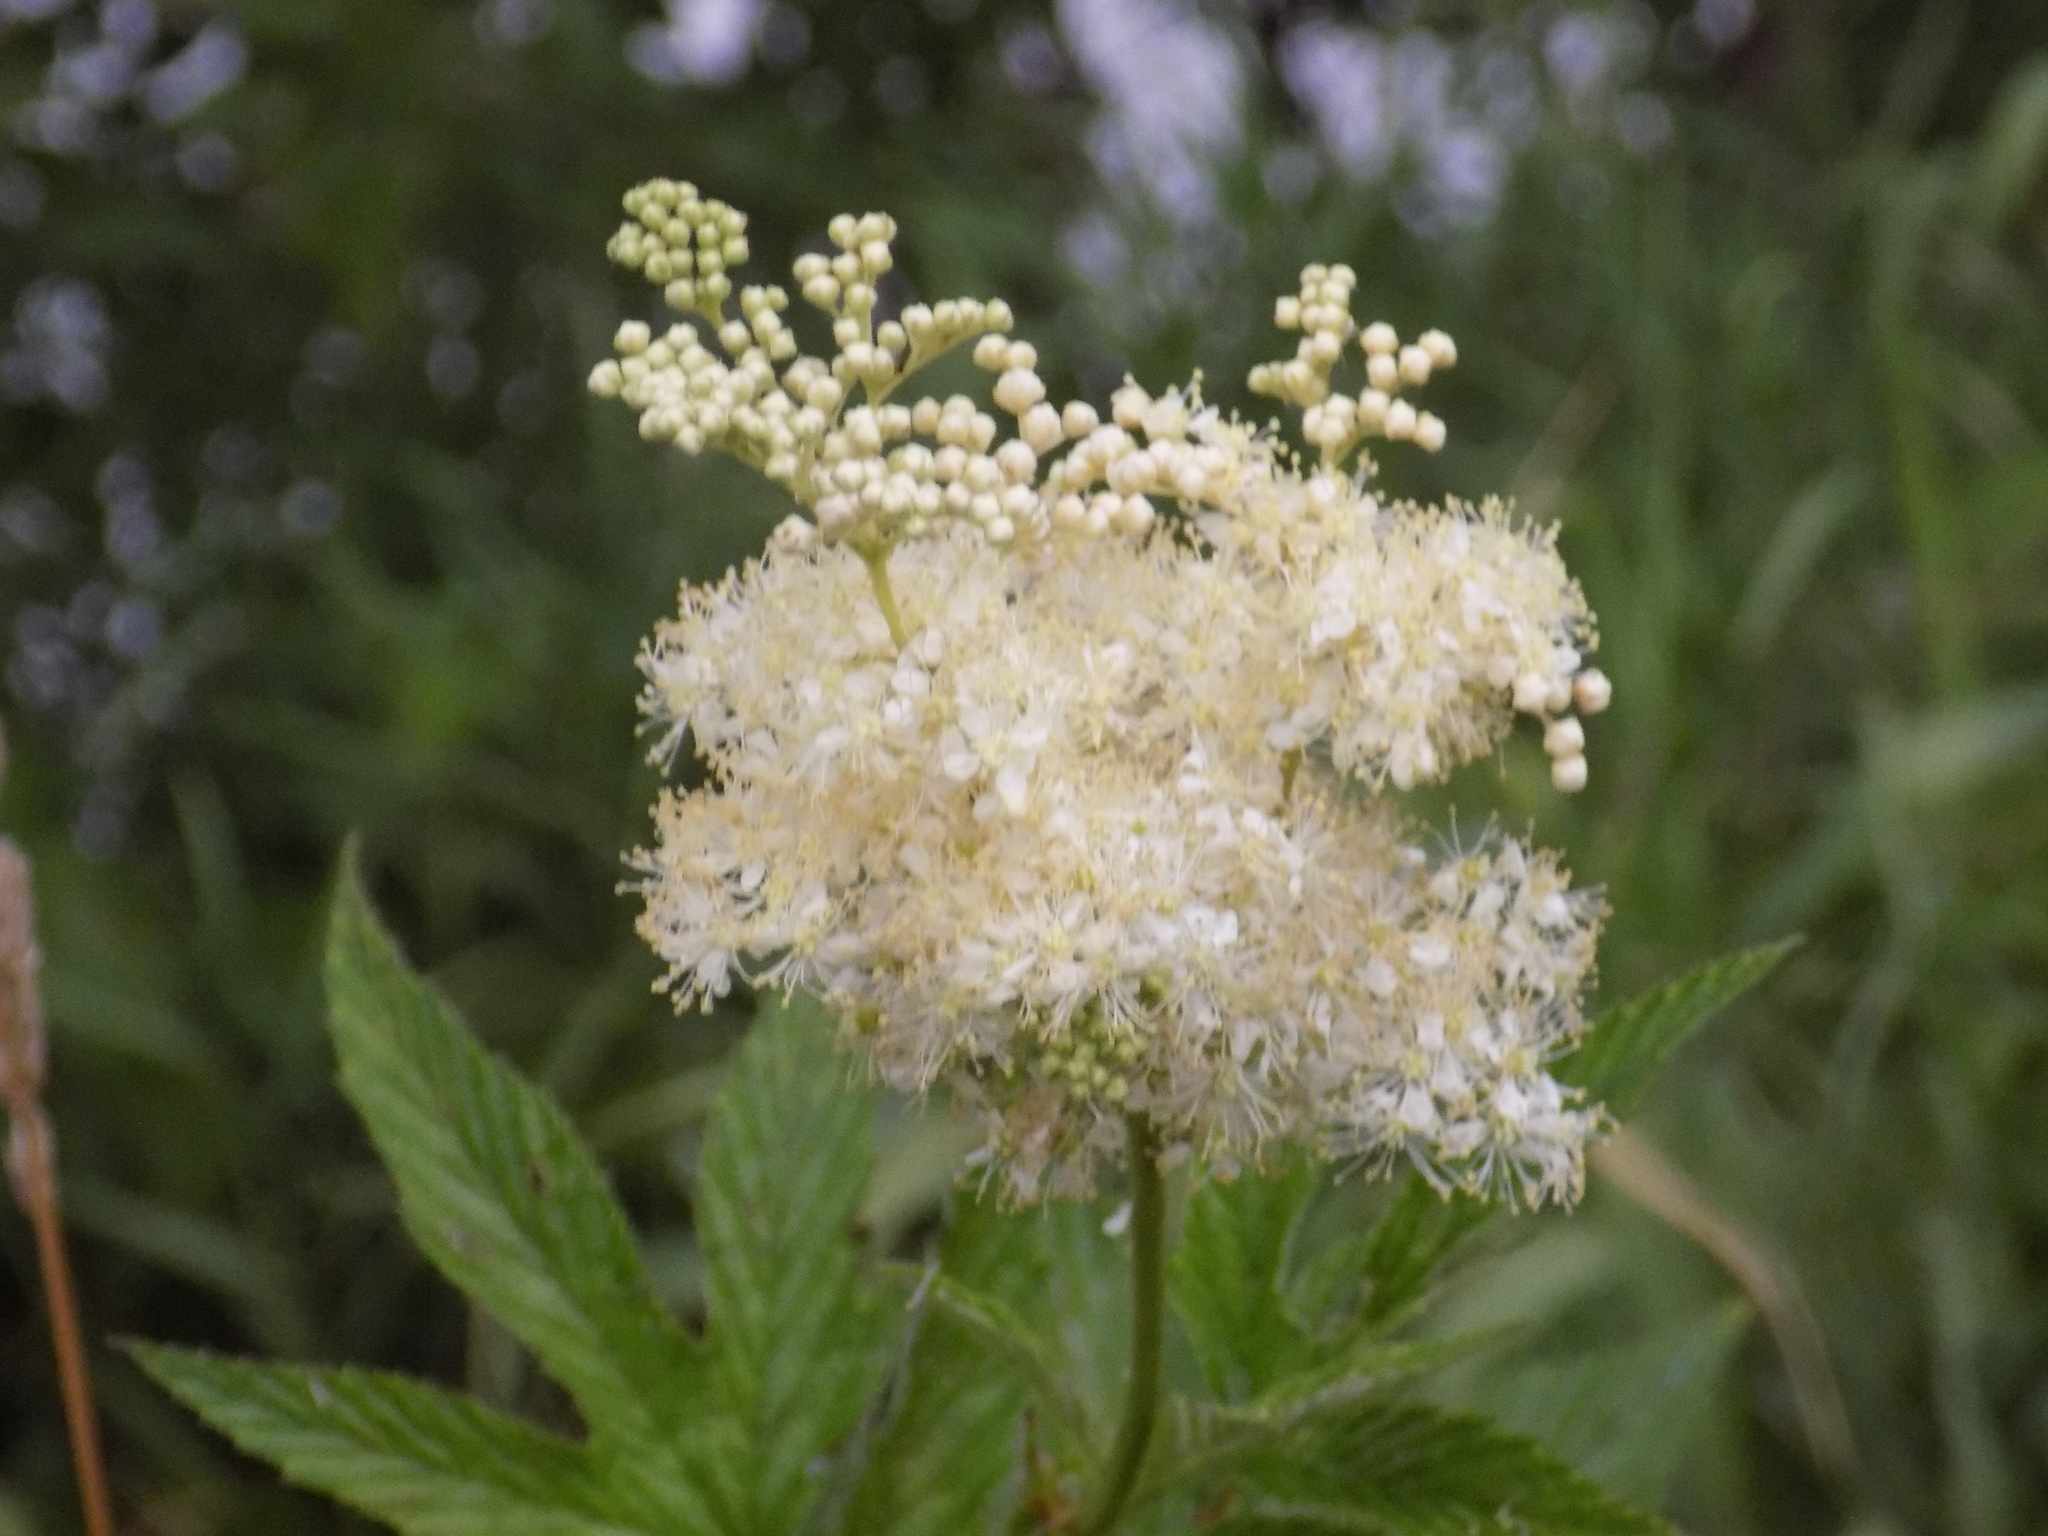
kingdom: Plantae
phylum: Tracheophyta
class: Magnoliopsida
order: Rosales
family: Rosaceae
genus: Filipendula
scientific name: Filipendula ulmaria
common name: Meadowsweet
